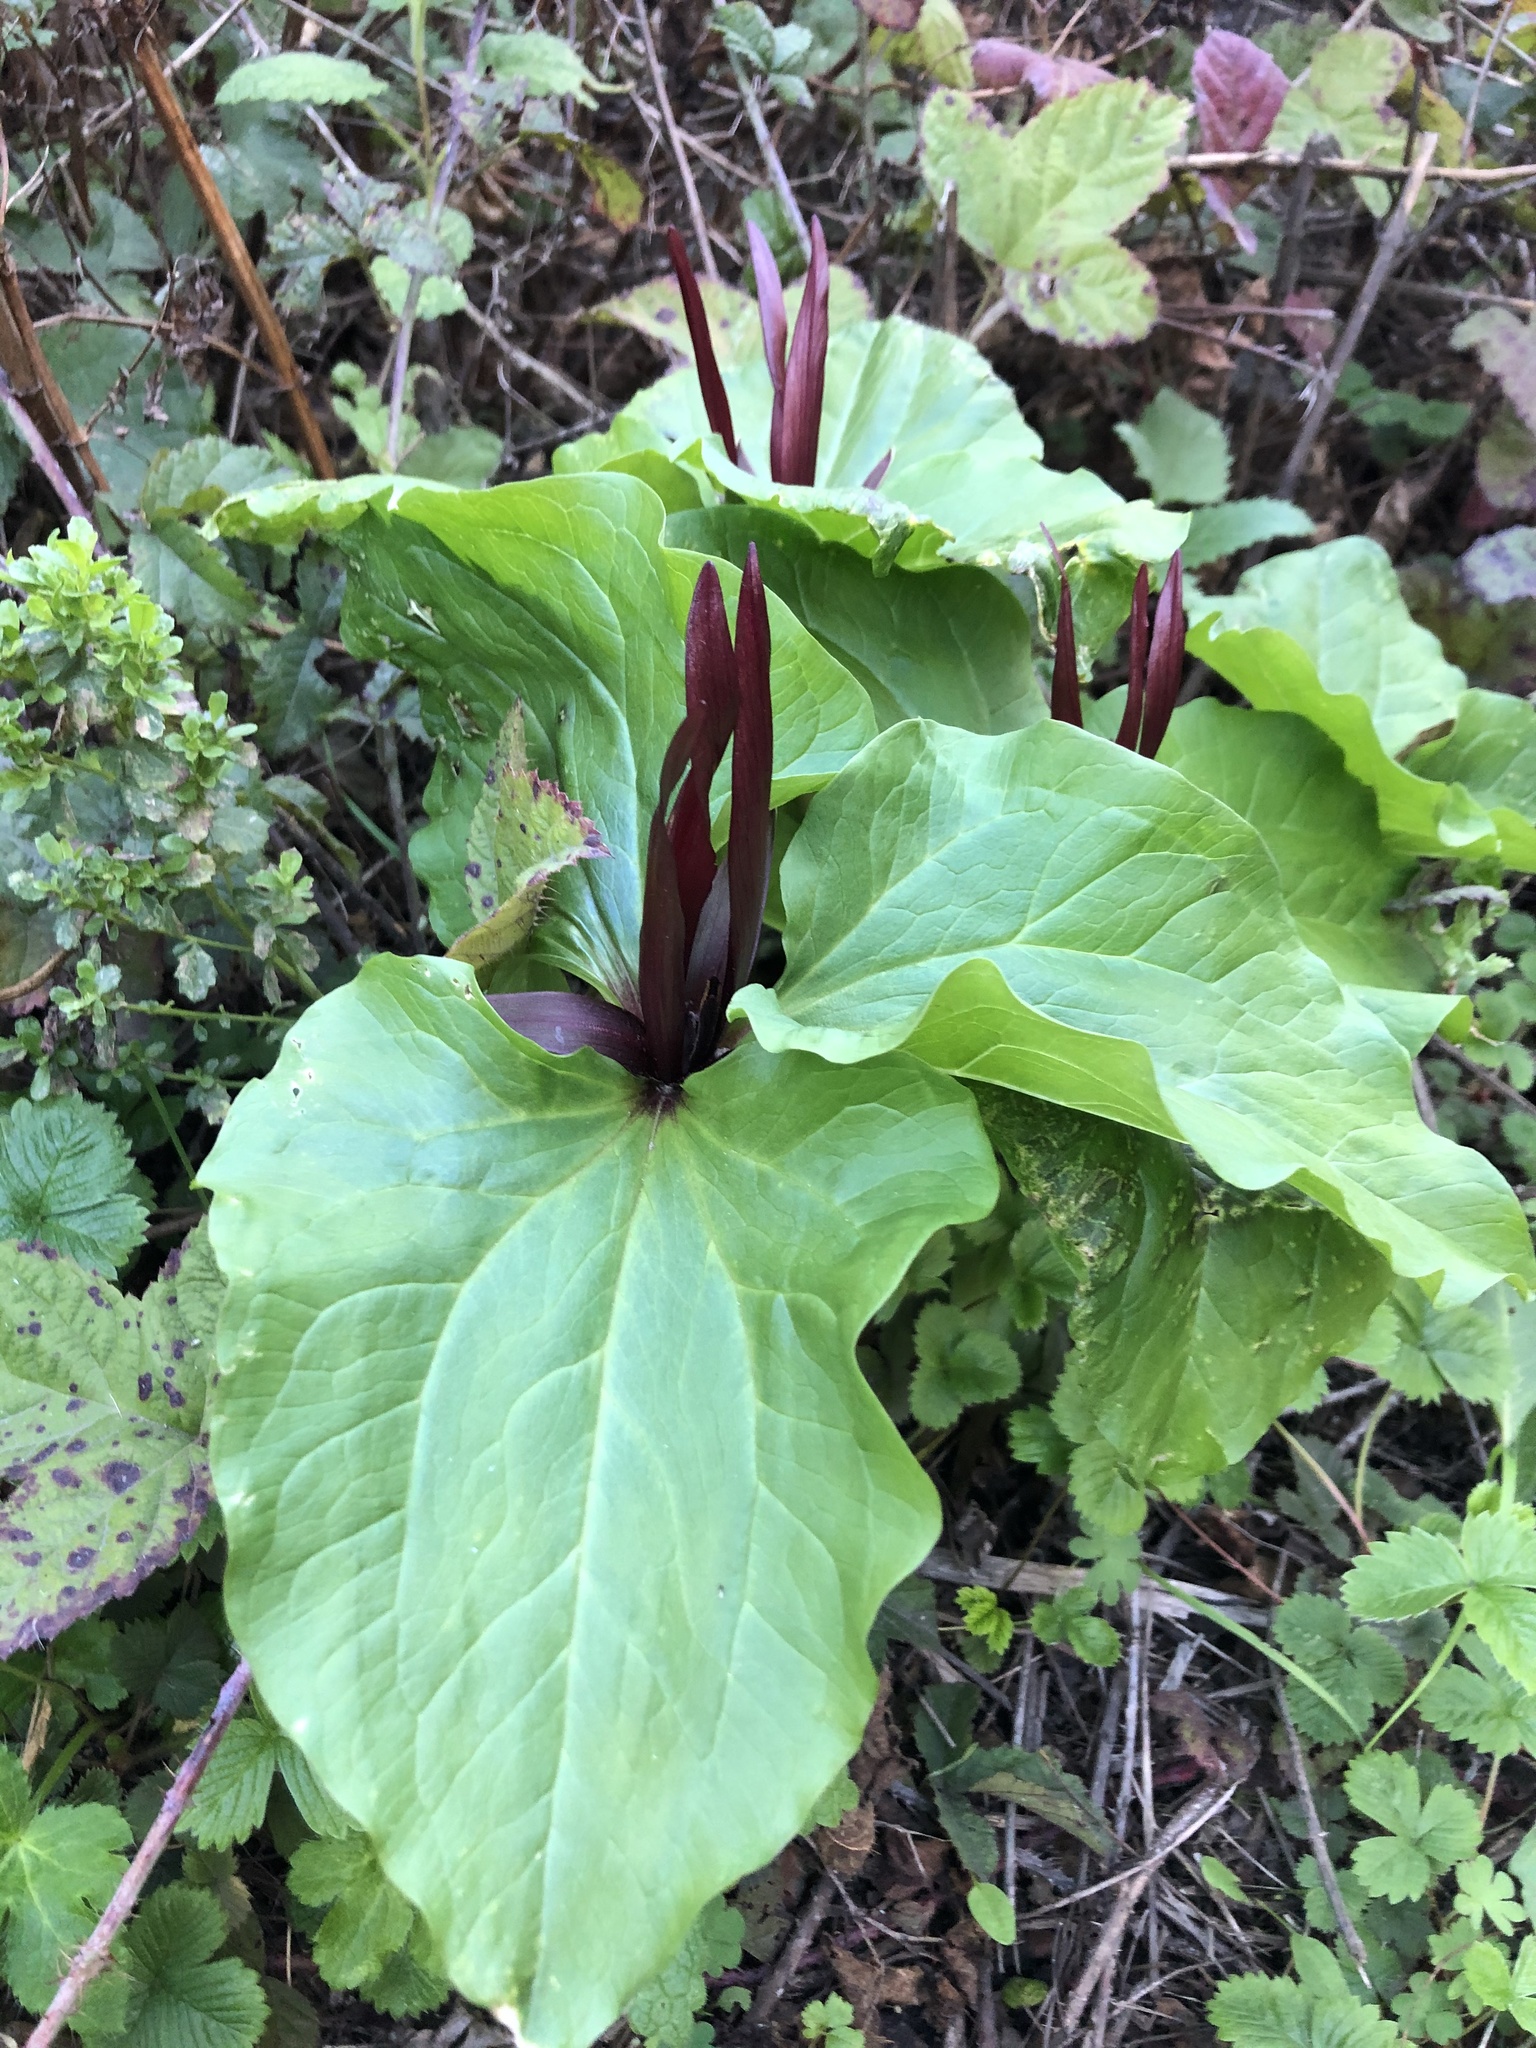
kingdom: Plantae
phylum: Tracheophyta
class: Liliopsida
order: Liliales
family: Melanthiaceae
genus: Trillium
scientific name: Trillium angustipetalum
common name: Narrow-petaled trillium
